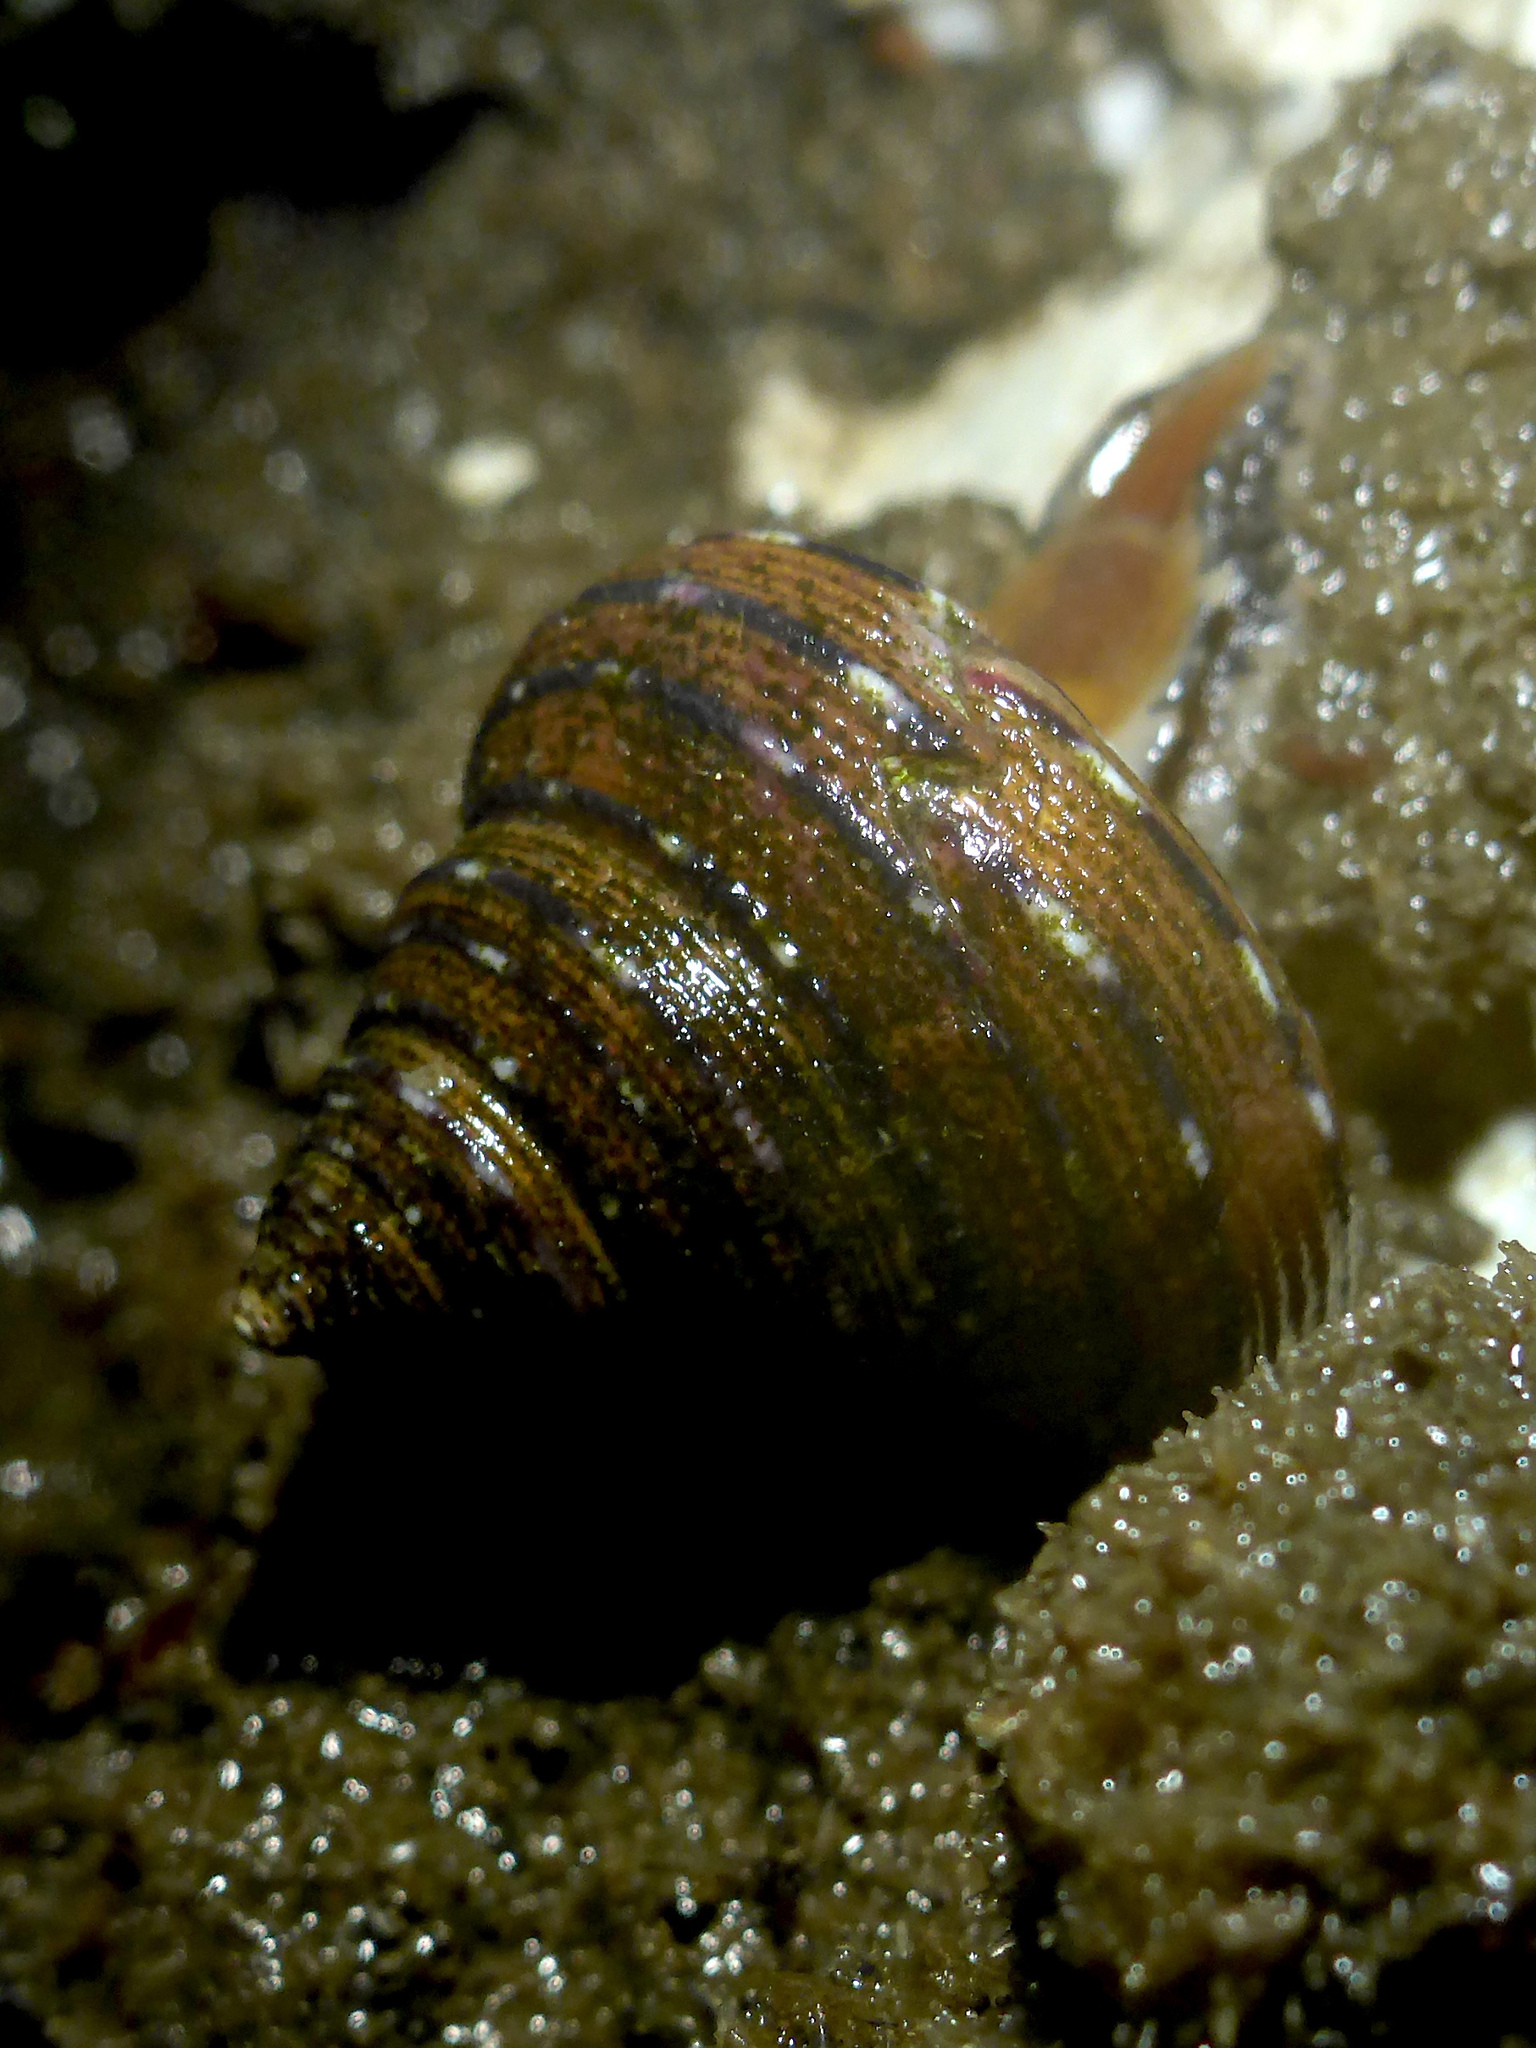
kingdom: Animalia
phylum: Mollusca
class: Gastropoda
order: Trochida
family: Calliostomatidae
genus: Calliostoma
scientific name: Calliostoma tricolor
